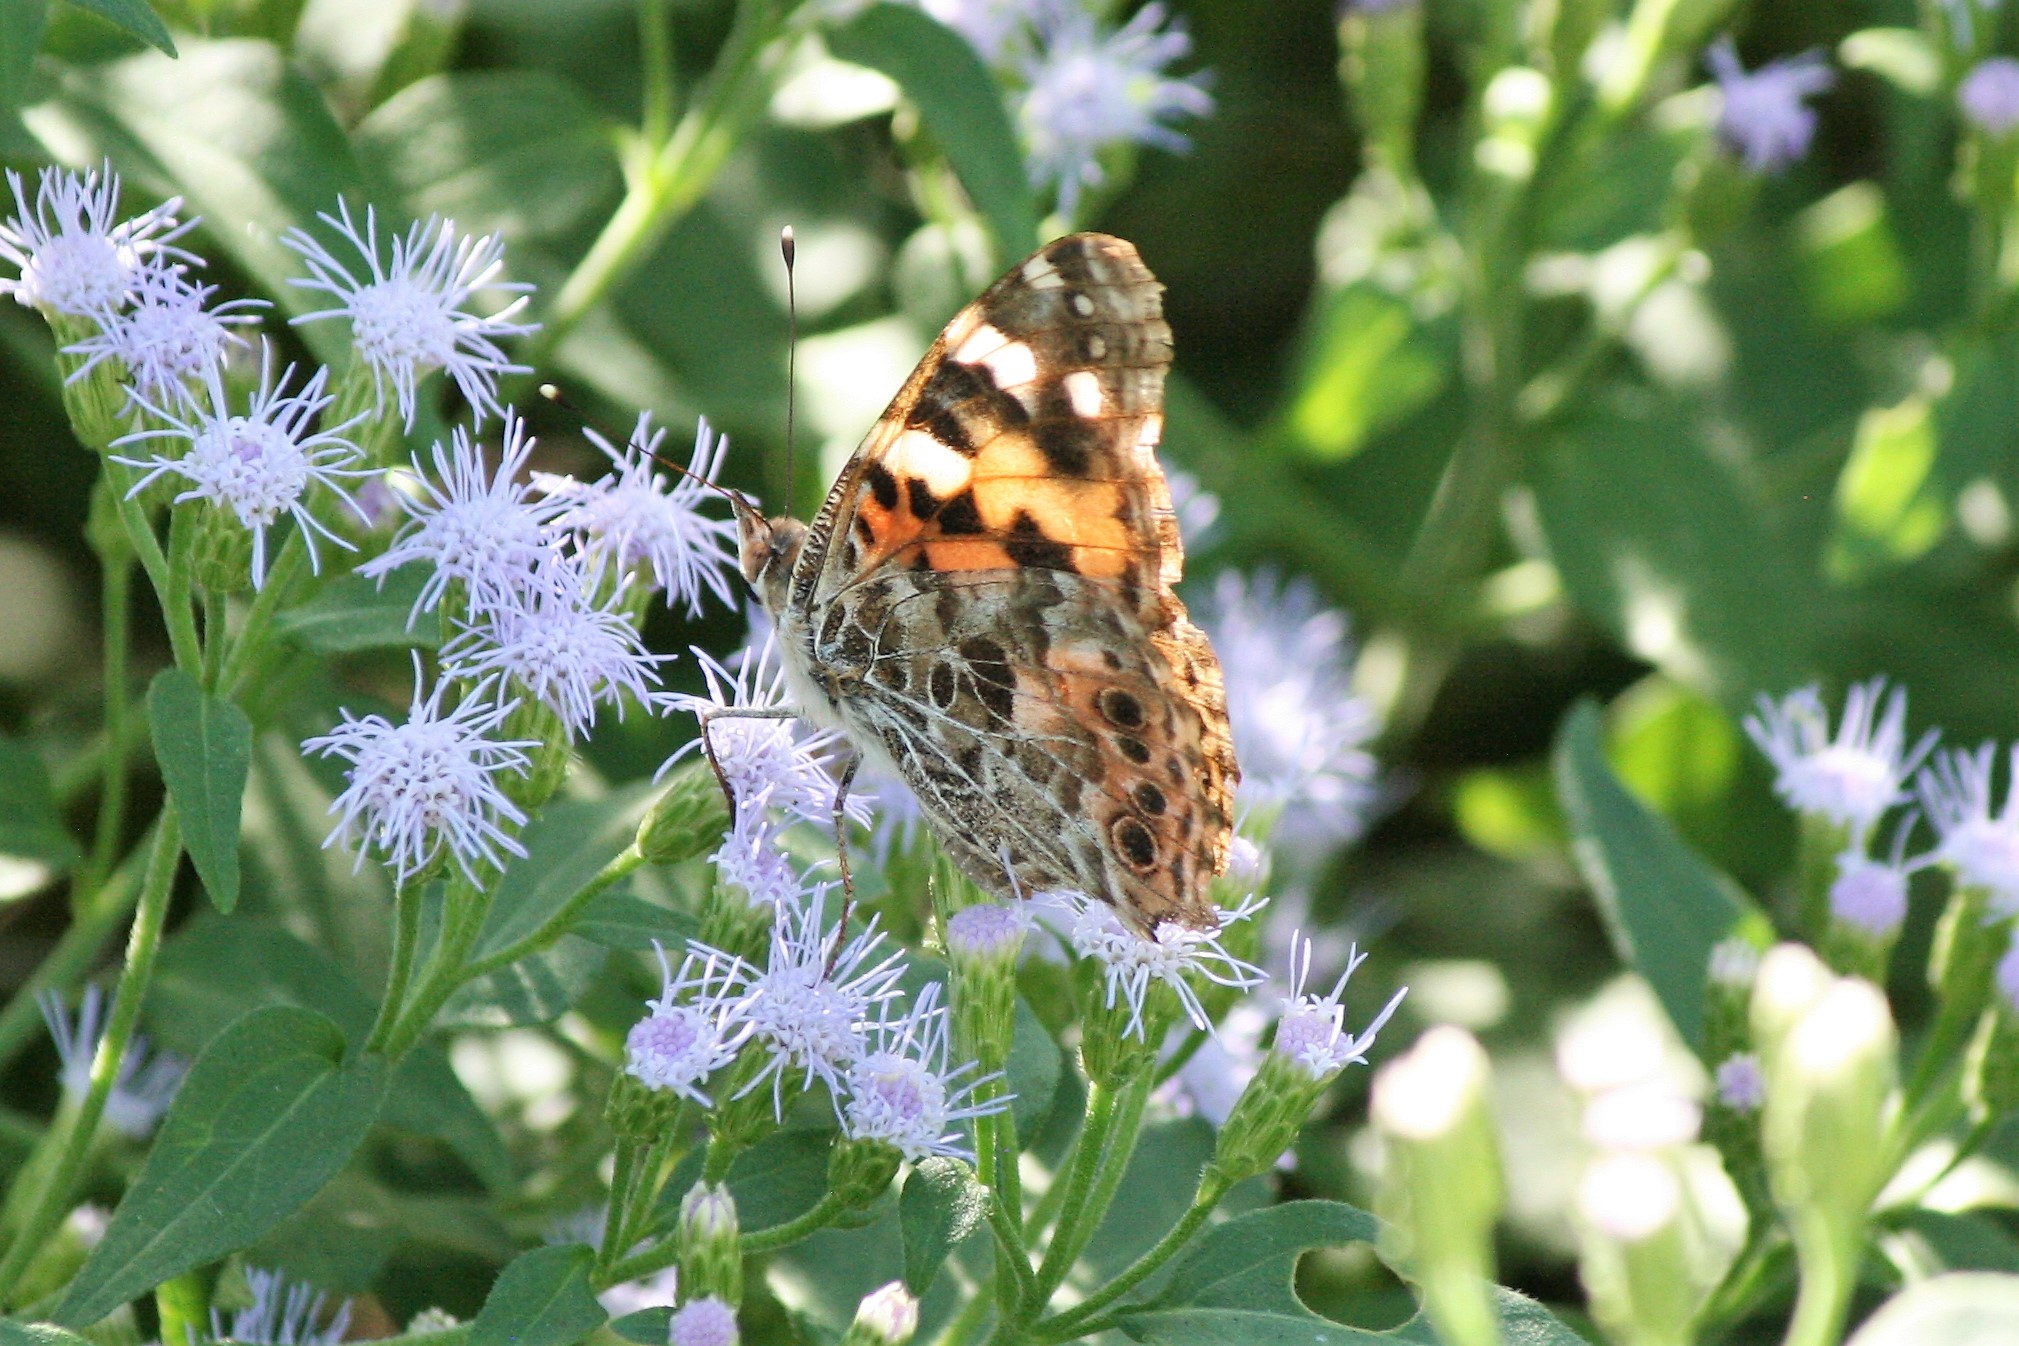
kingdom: Animalia
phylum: Arthropoda
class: Insecta
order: Lepidoptera
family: Nymphalidae
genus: Vanessa
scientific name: Vanessa cardui
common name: Painted lady
